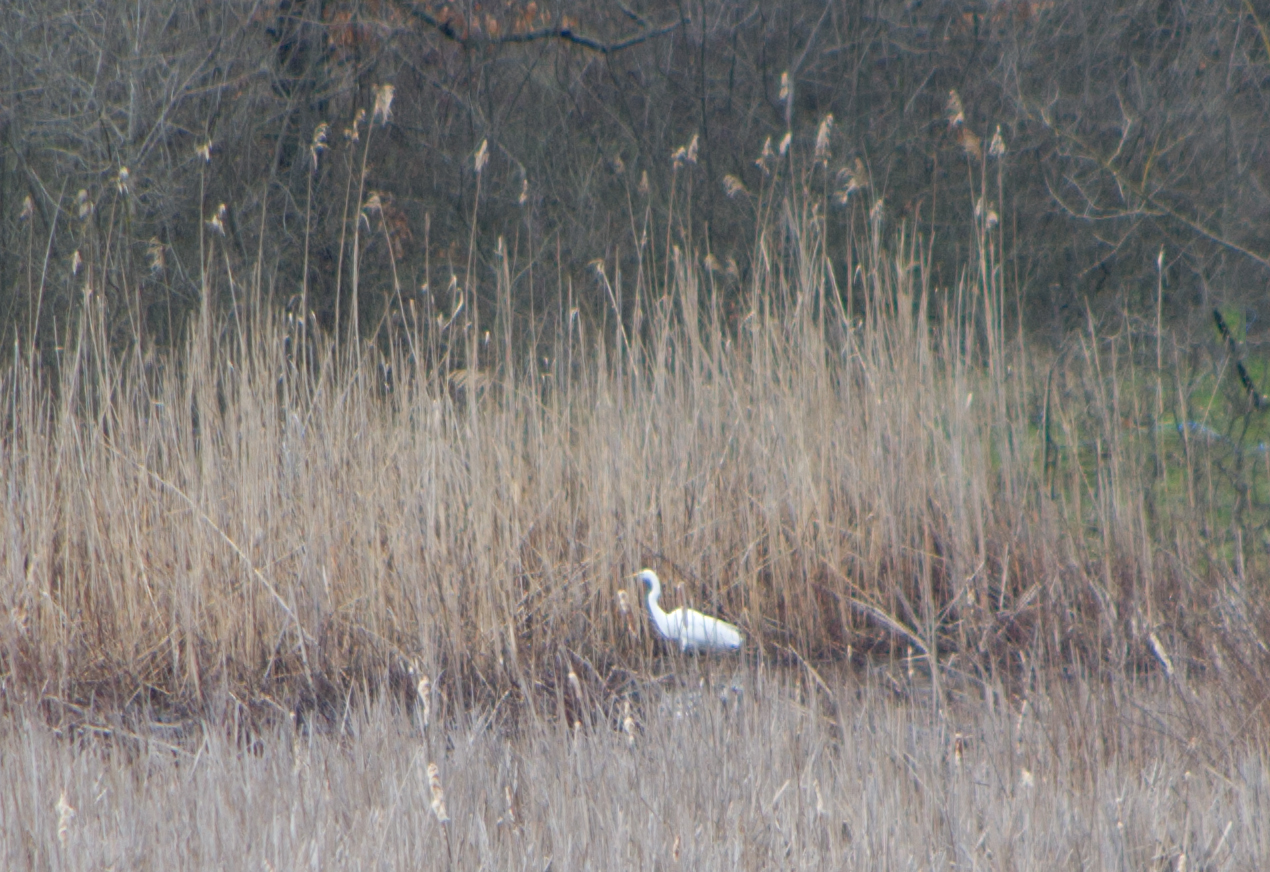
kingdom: Animalia
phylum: Chordata
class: Aves
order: Pelecaniformes
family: Ardeidae
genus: Ardea
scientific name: Ardea alba
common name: Great egret
